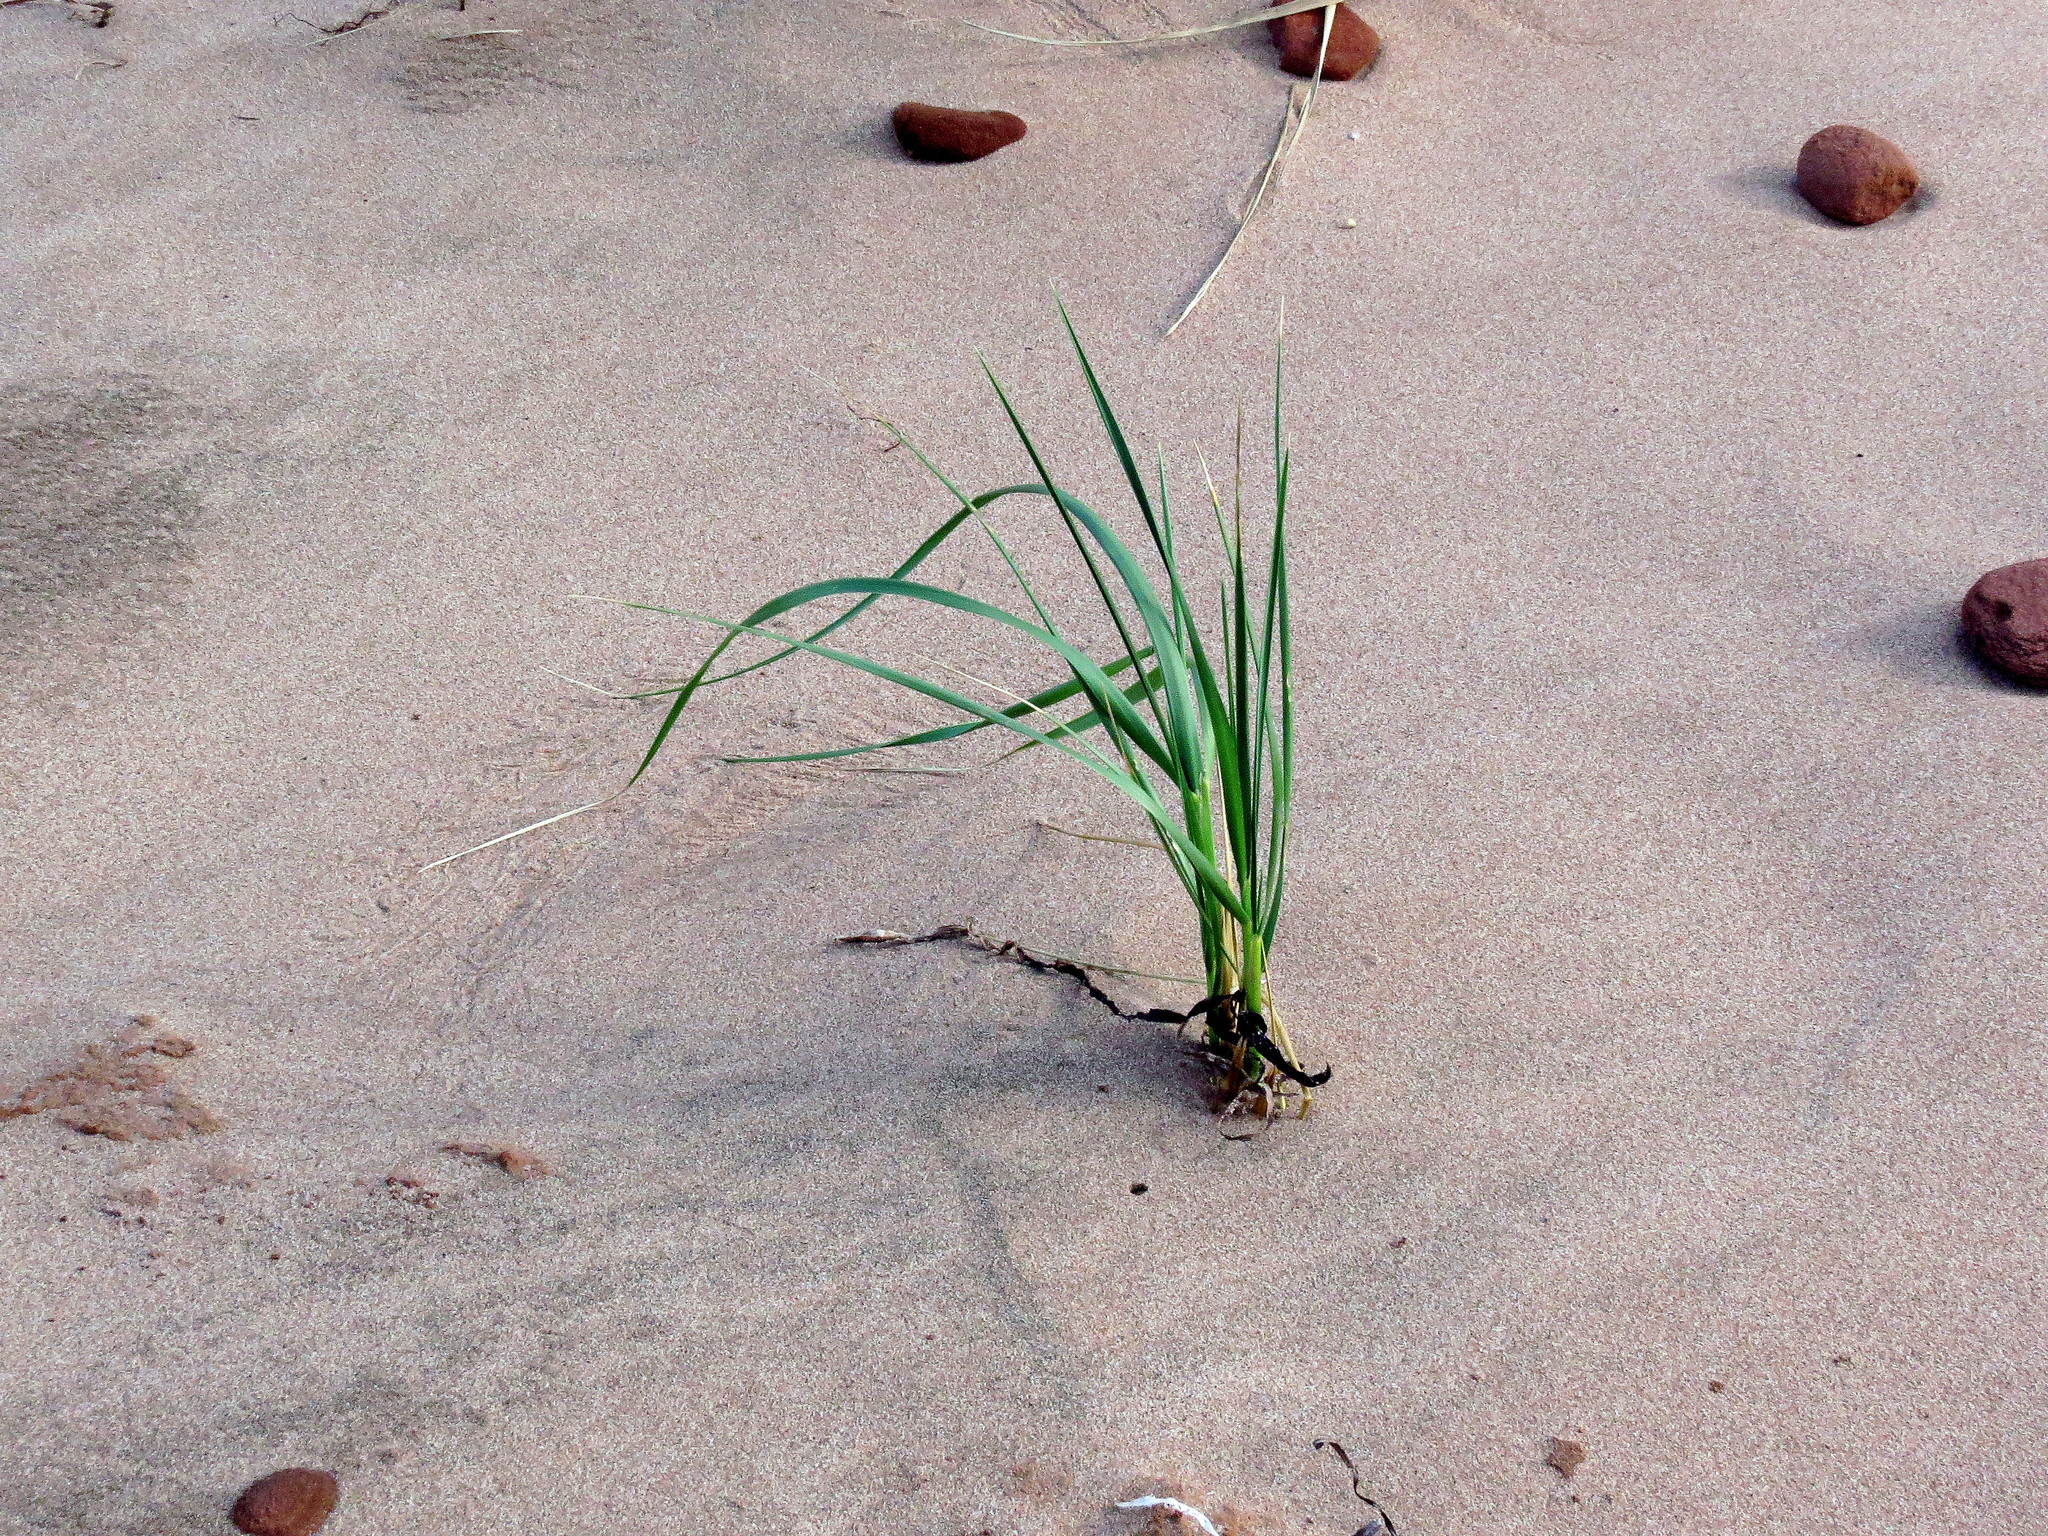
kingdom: Plantae
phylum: Tracheophyta
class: Liliopsida
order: Poales
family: Poaceae
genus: Calamagrostis
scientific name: Calamagrostis breviligulata
